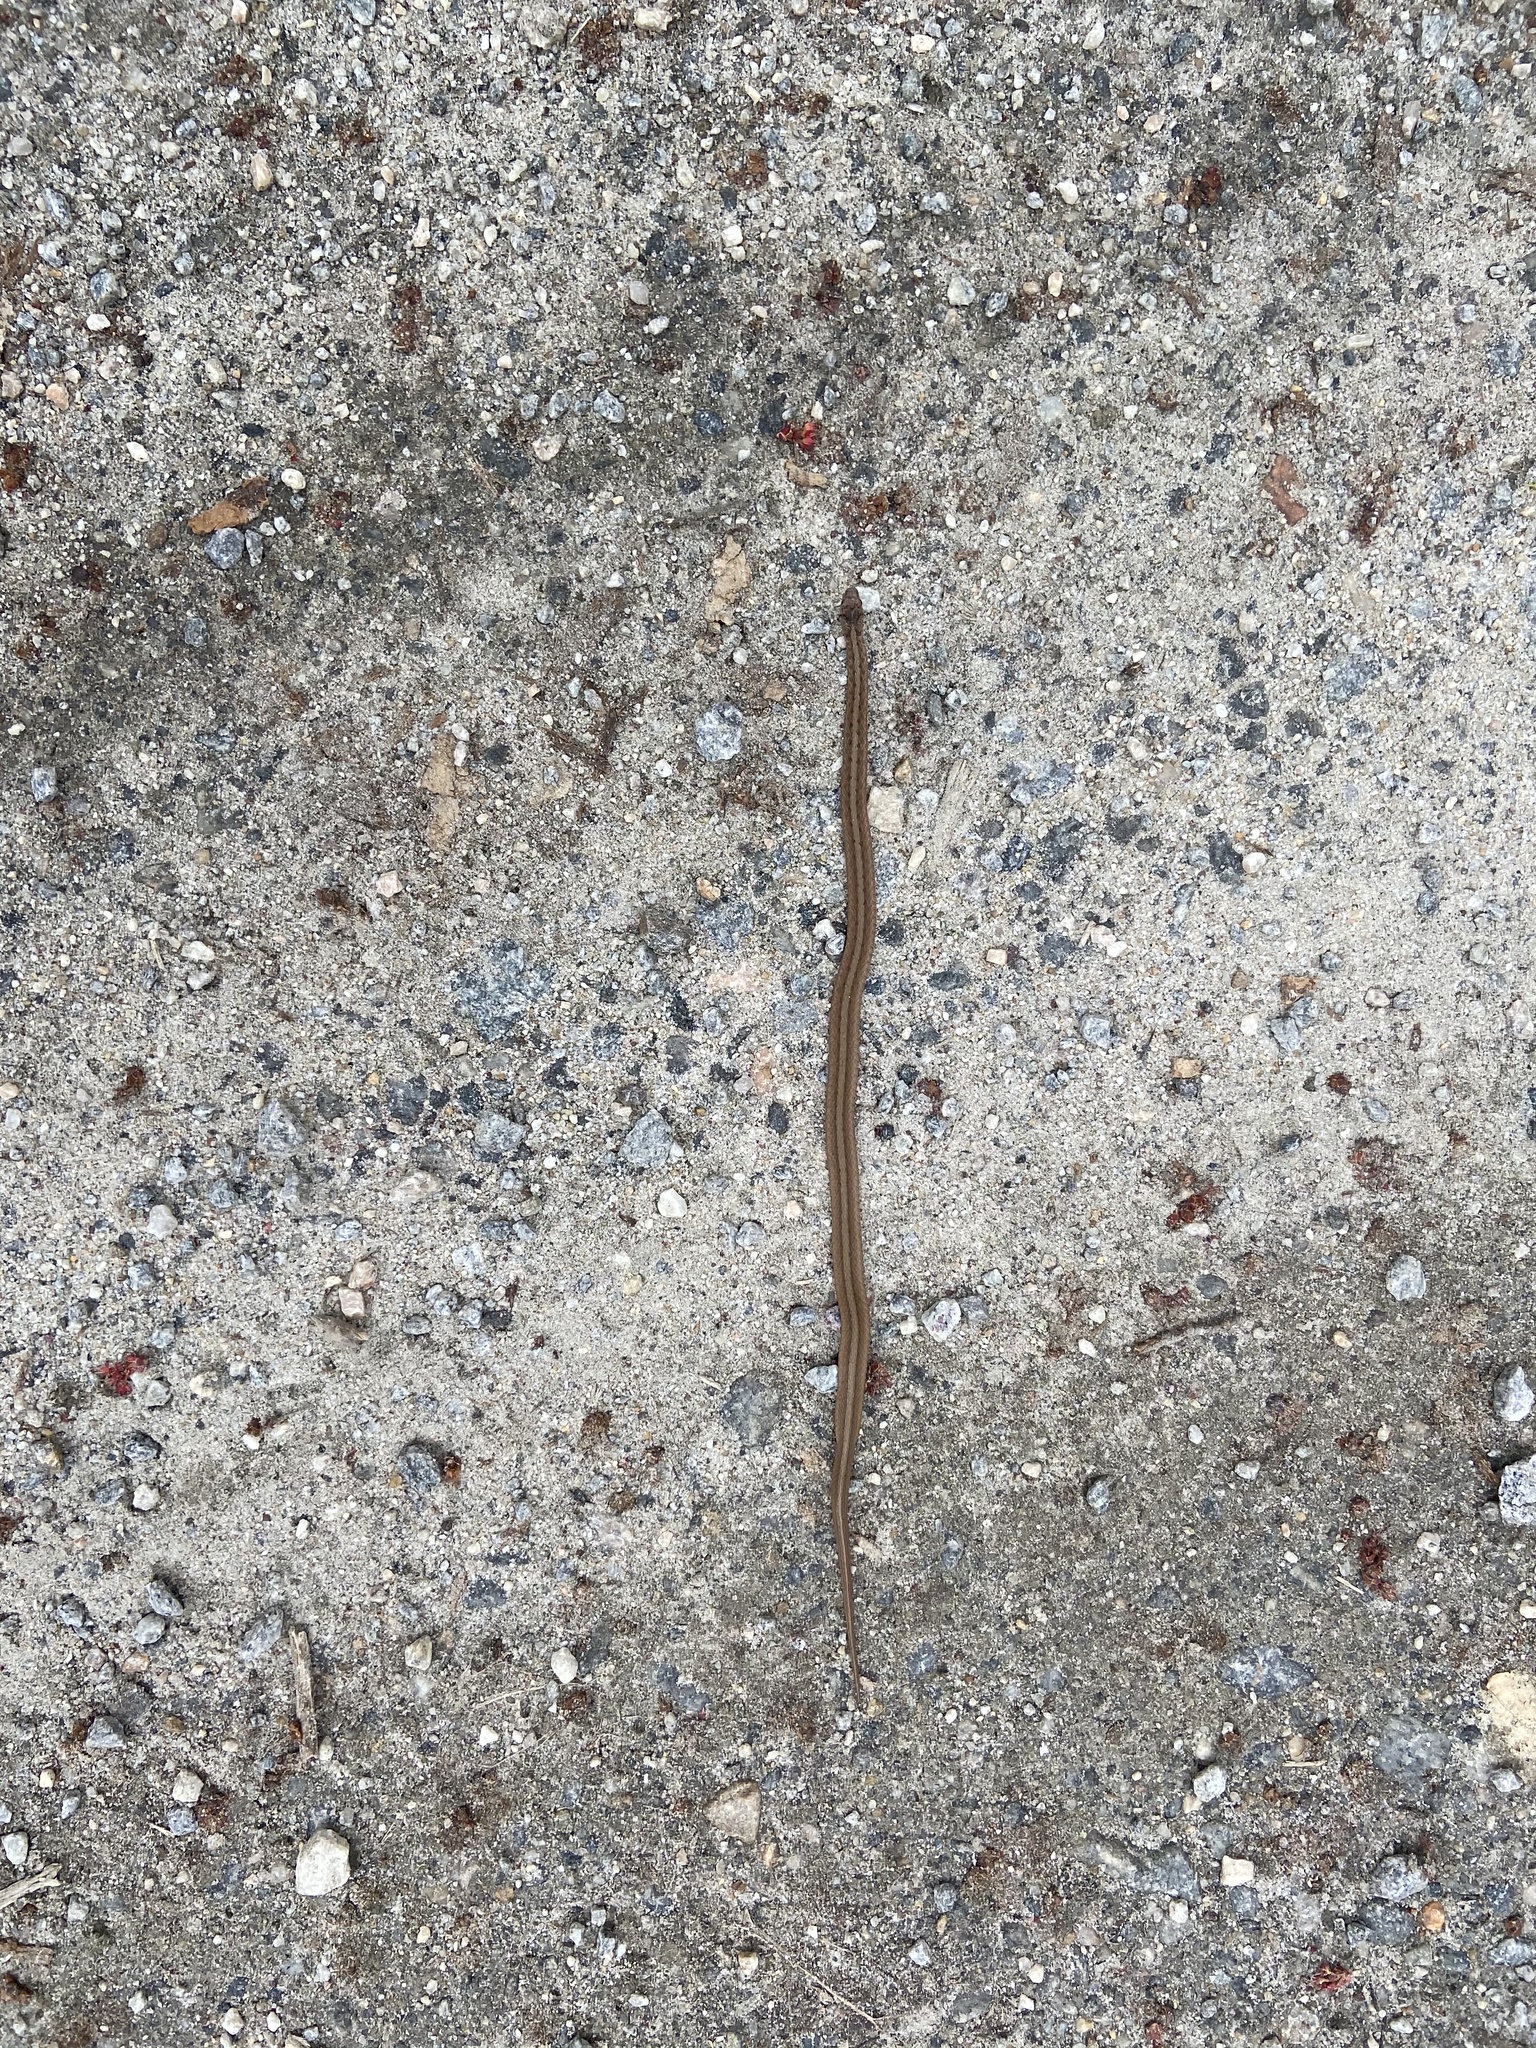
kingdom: Animalia
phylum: Chordata
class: Squamata
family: Colubridae
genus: Storeria
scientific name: Storeria dekayi
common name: (dekay’s) brown snake
